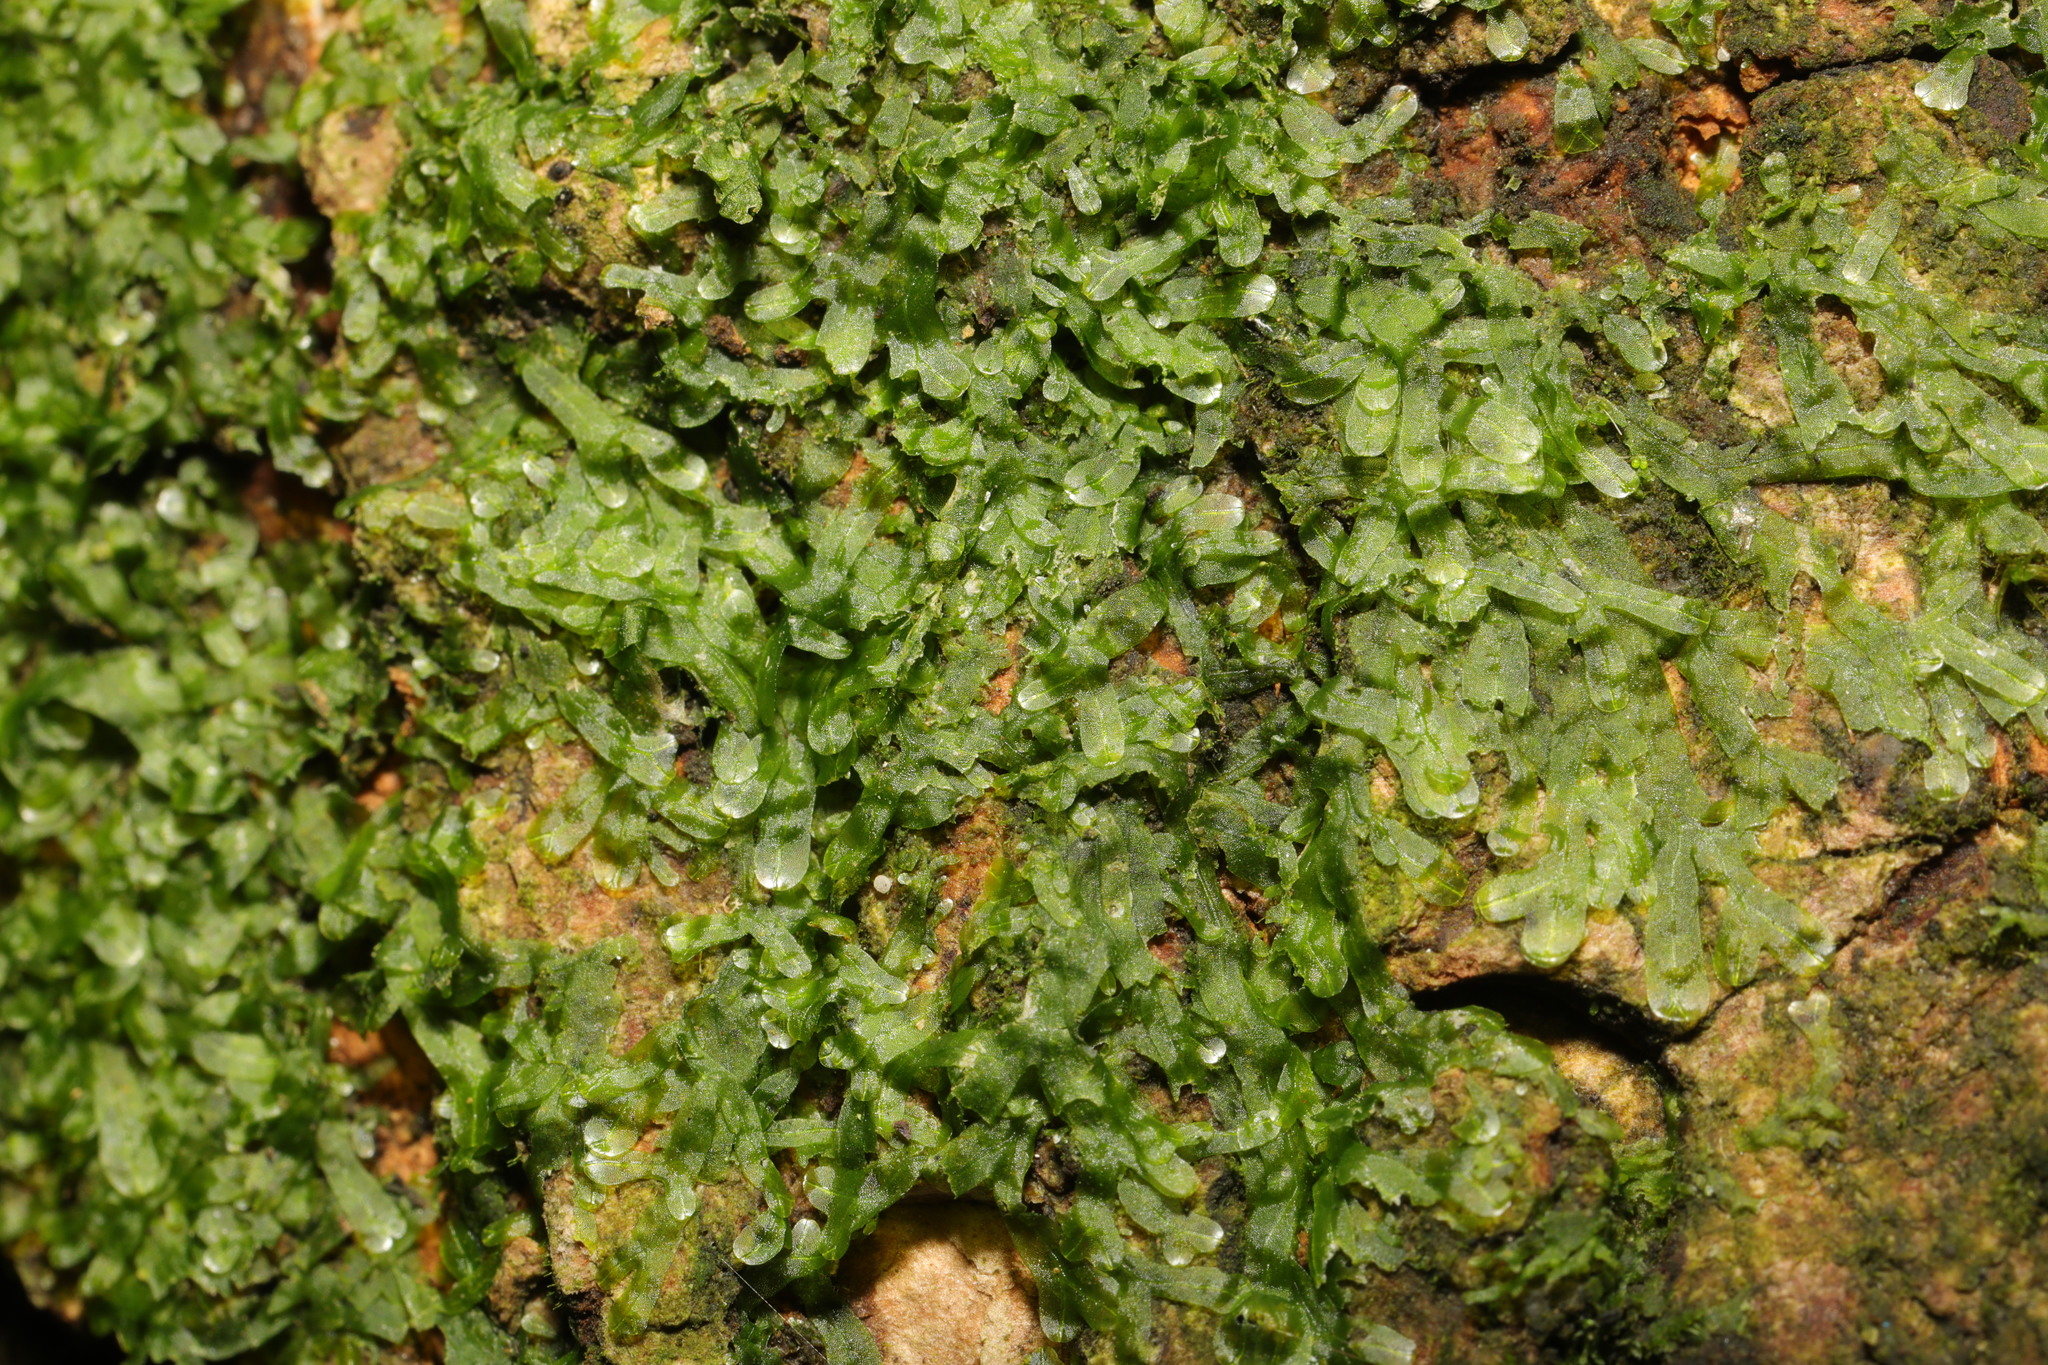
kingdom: Plantae
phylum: Marchantiophyta
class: Jungermanniopsida
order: Metzgeriales
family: Metzgeriaceae
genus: Metzgeria
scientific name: Metzgeria furcata
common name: Forked veilwort
